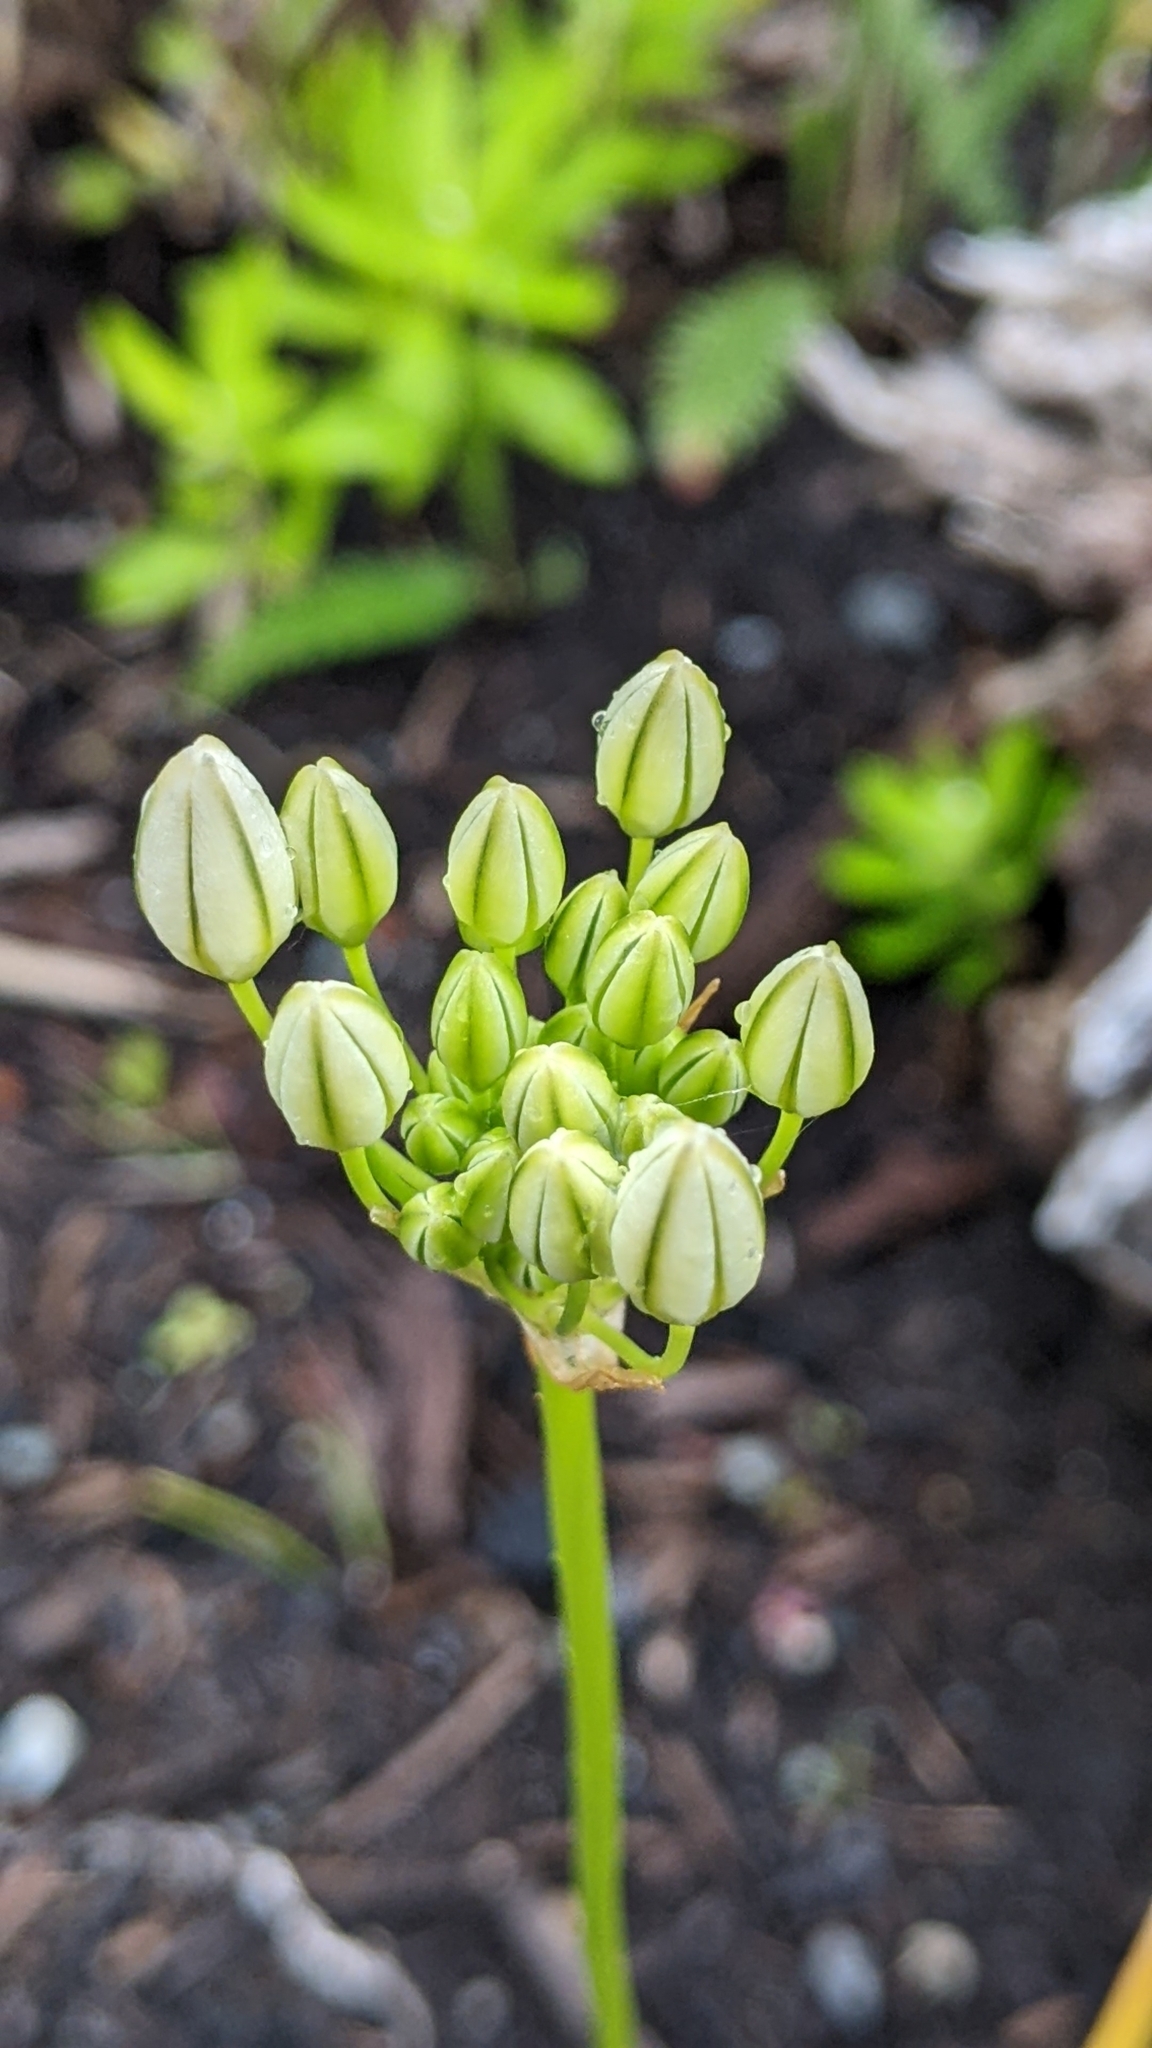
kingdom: Plantae
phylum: Tracheophyta
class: Liliopsida
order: Asparagales
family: Asparagaceae
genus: Triteleia
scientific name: Triteleia hyacinthina
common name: White brodiaea
